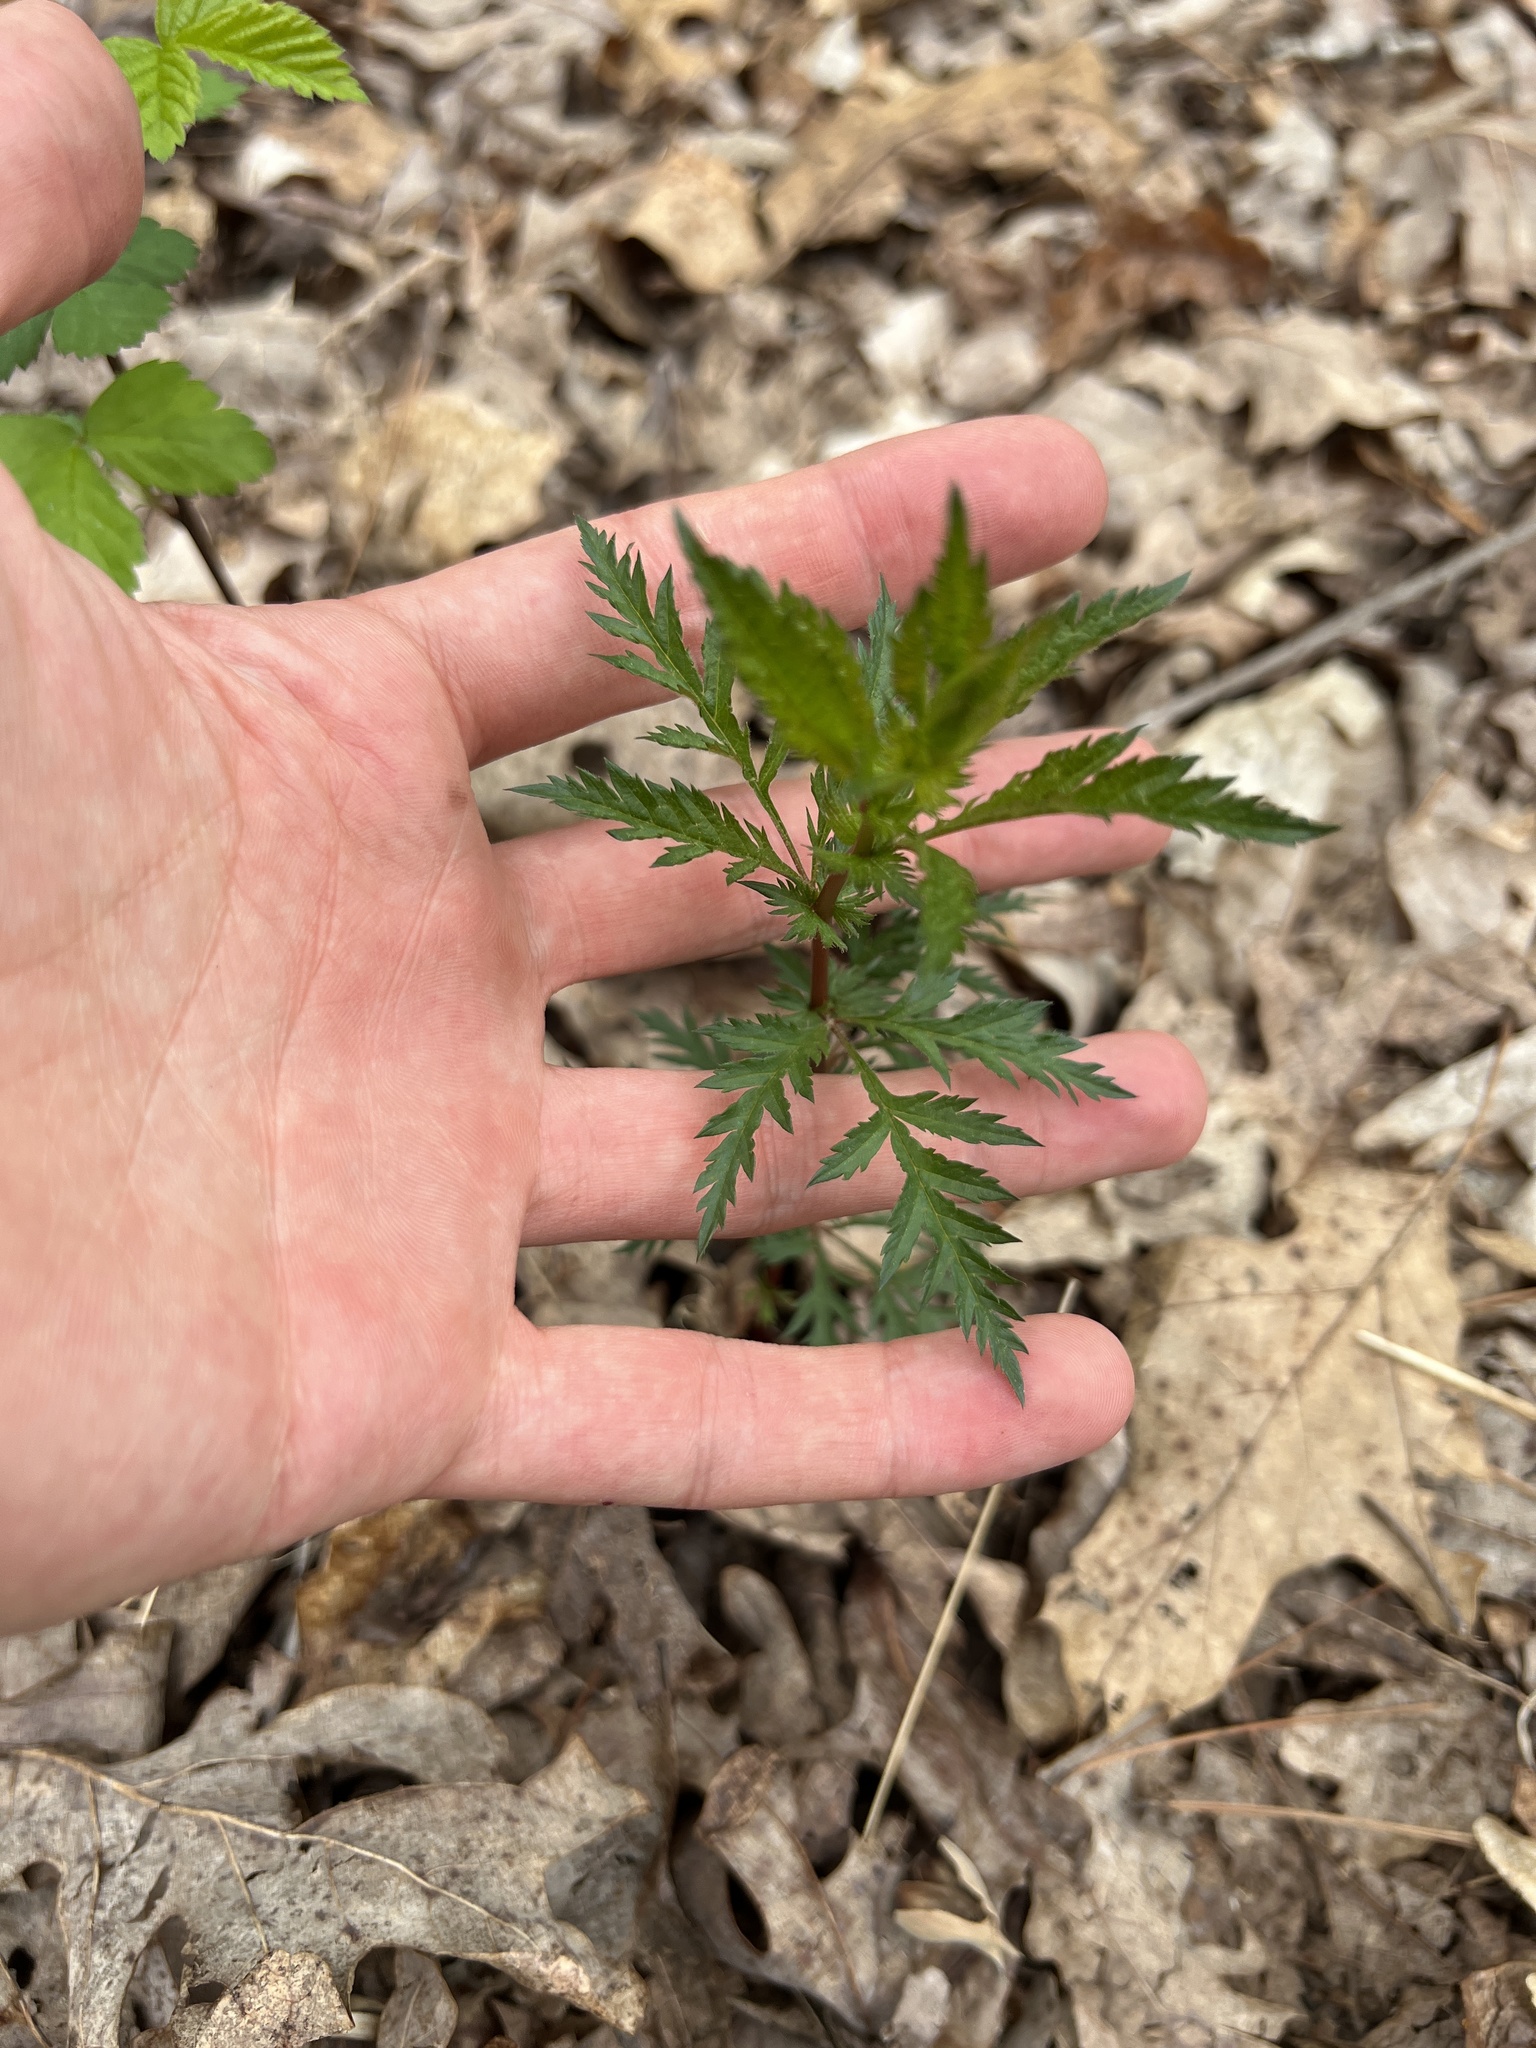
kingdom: Plantae
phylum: Tracheophyta
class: Magnoliopsida
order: Rosales
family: Rosaceae
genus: Gillenia
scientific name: Gillenia stipulata
